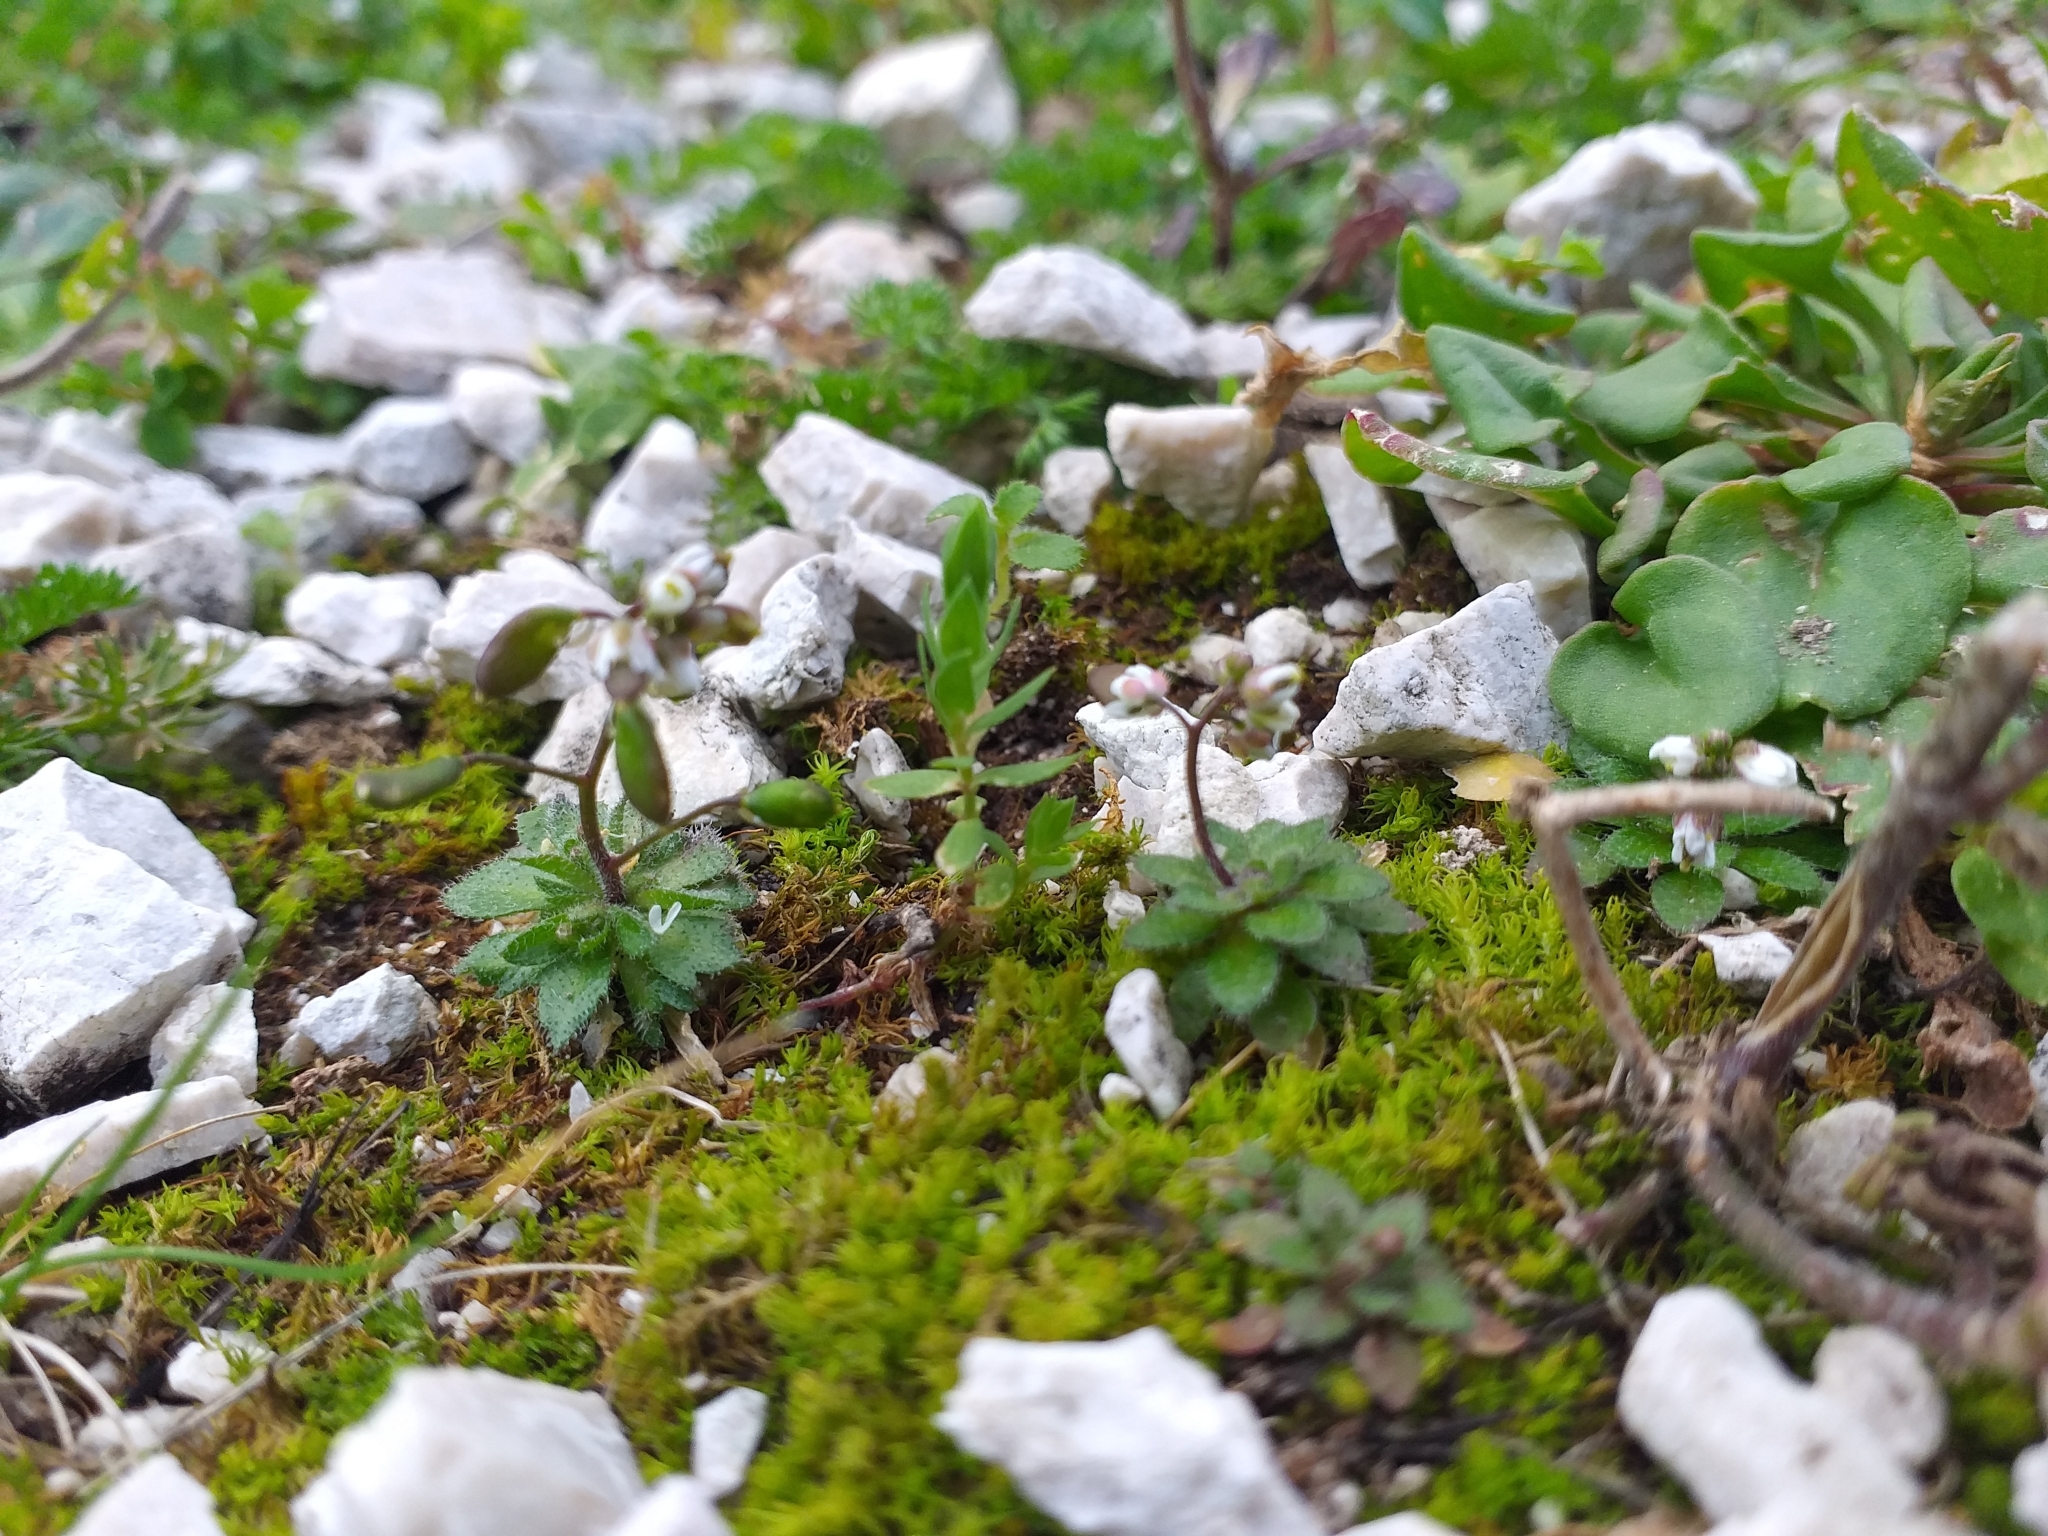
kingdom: Plantae
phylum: Tracheophyta
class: Magnoliopsida
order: Brassicales
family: Brassicaceae
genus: Draba
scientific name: Draba verna
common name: Spring draba
